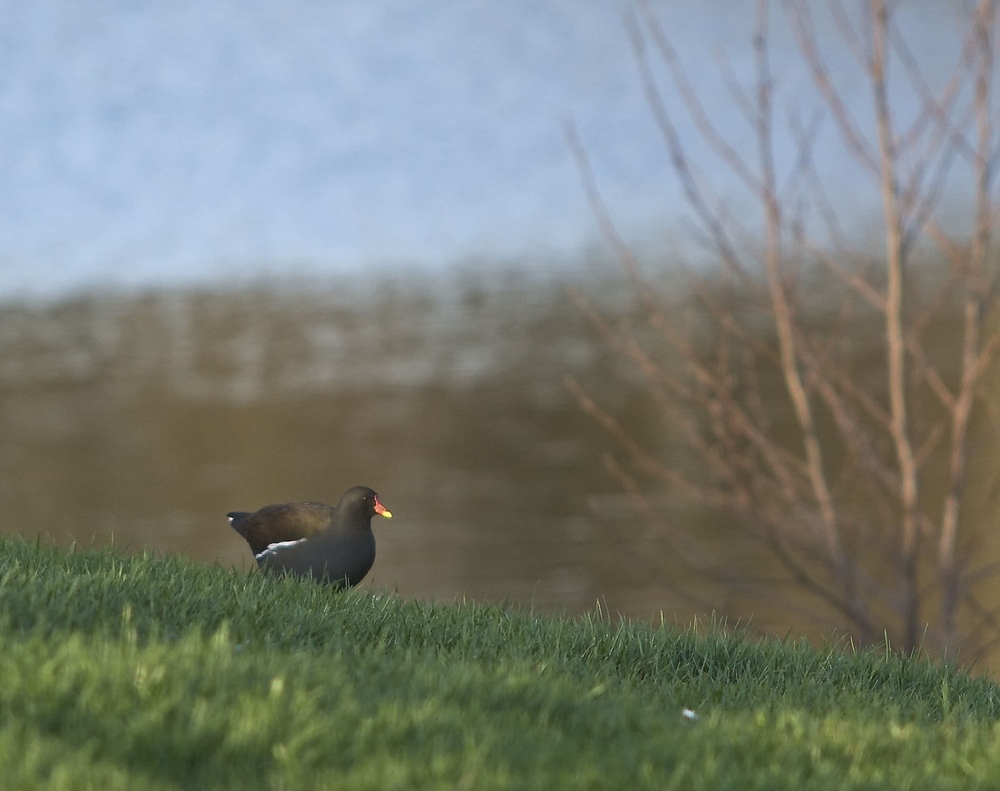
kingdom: Animalia
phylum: Chordata
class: Aves
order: Gruiformes
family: Rallidae
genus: Gallinula
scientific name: Gallinula chloropus
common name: Common moorhen
